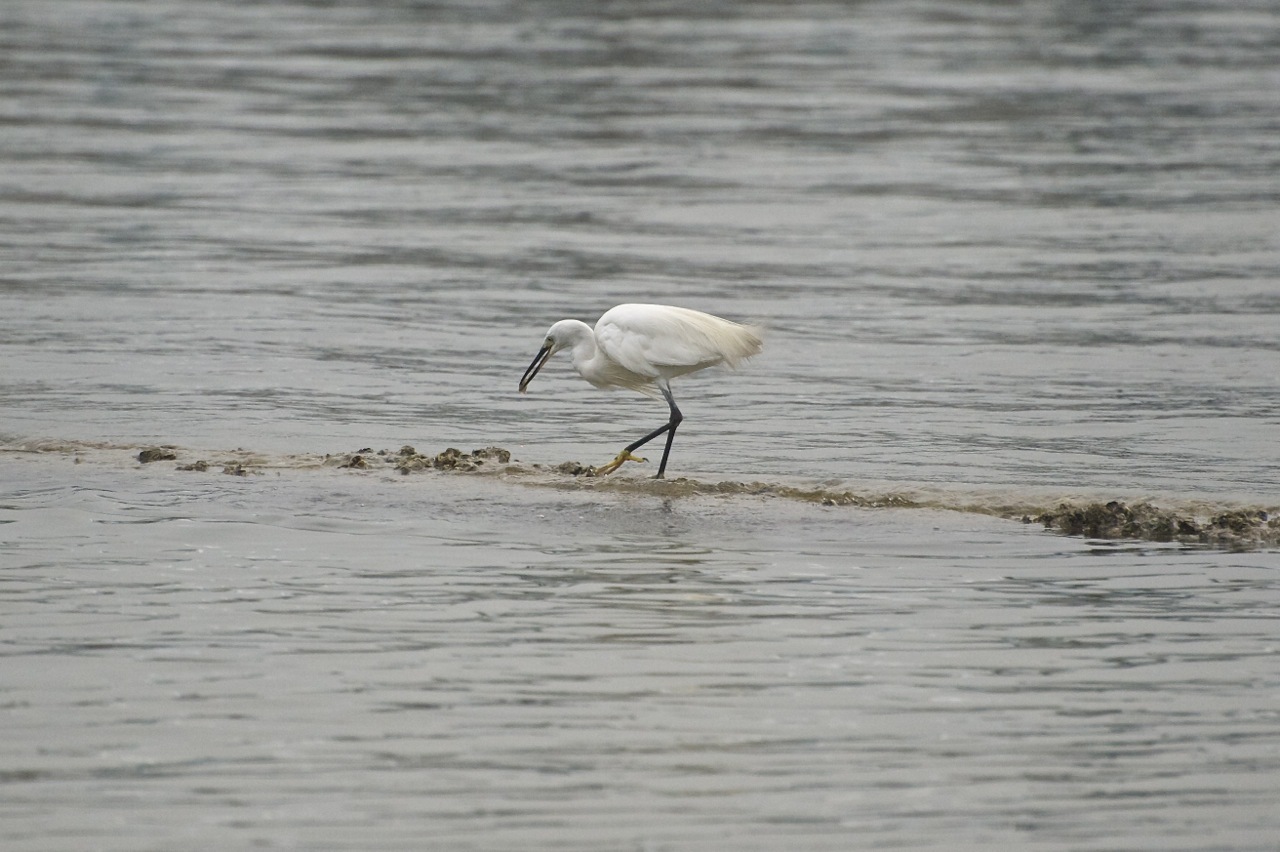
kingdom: Animalia
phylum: Chordata
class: Aves
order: Pelecaniformes
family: Ardeidae
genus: Egretta
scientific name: Egretta garzetta
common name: Little egret
